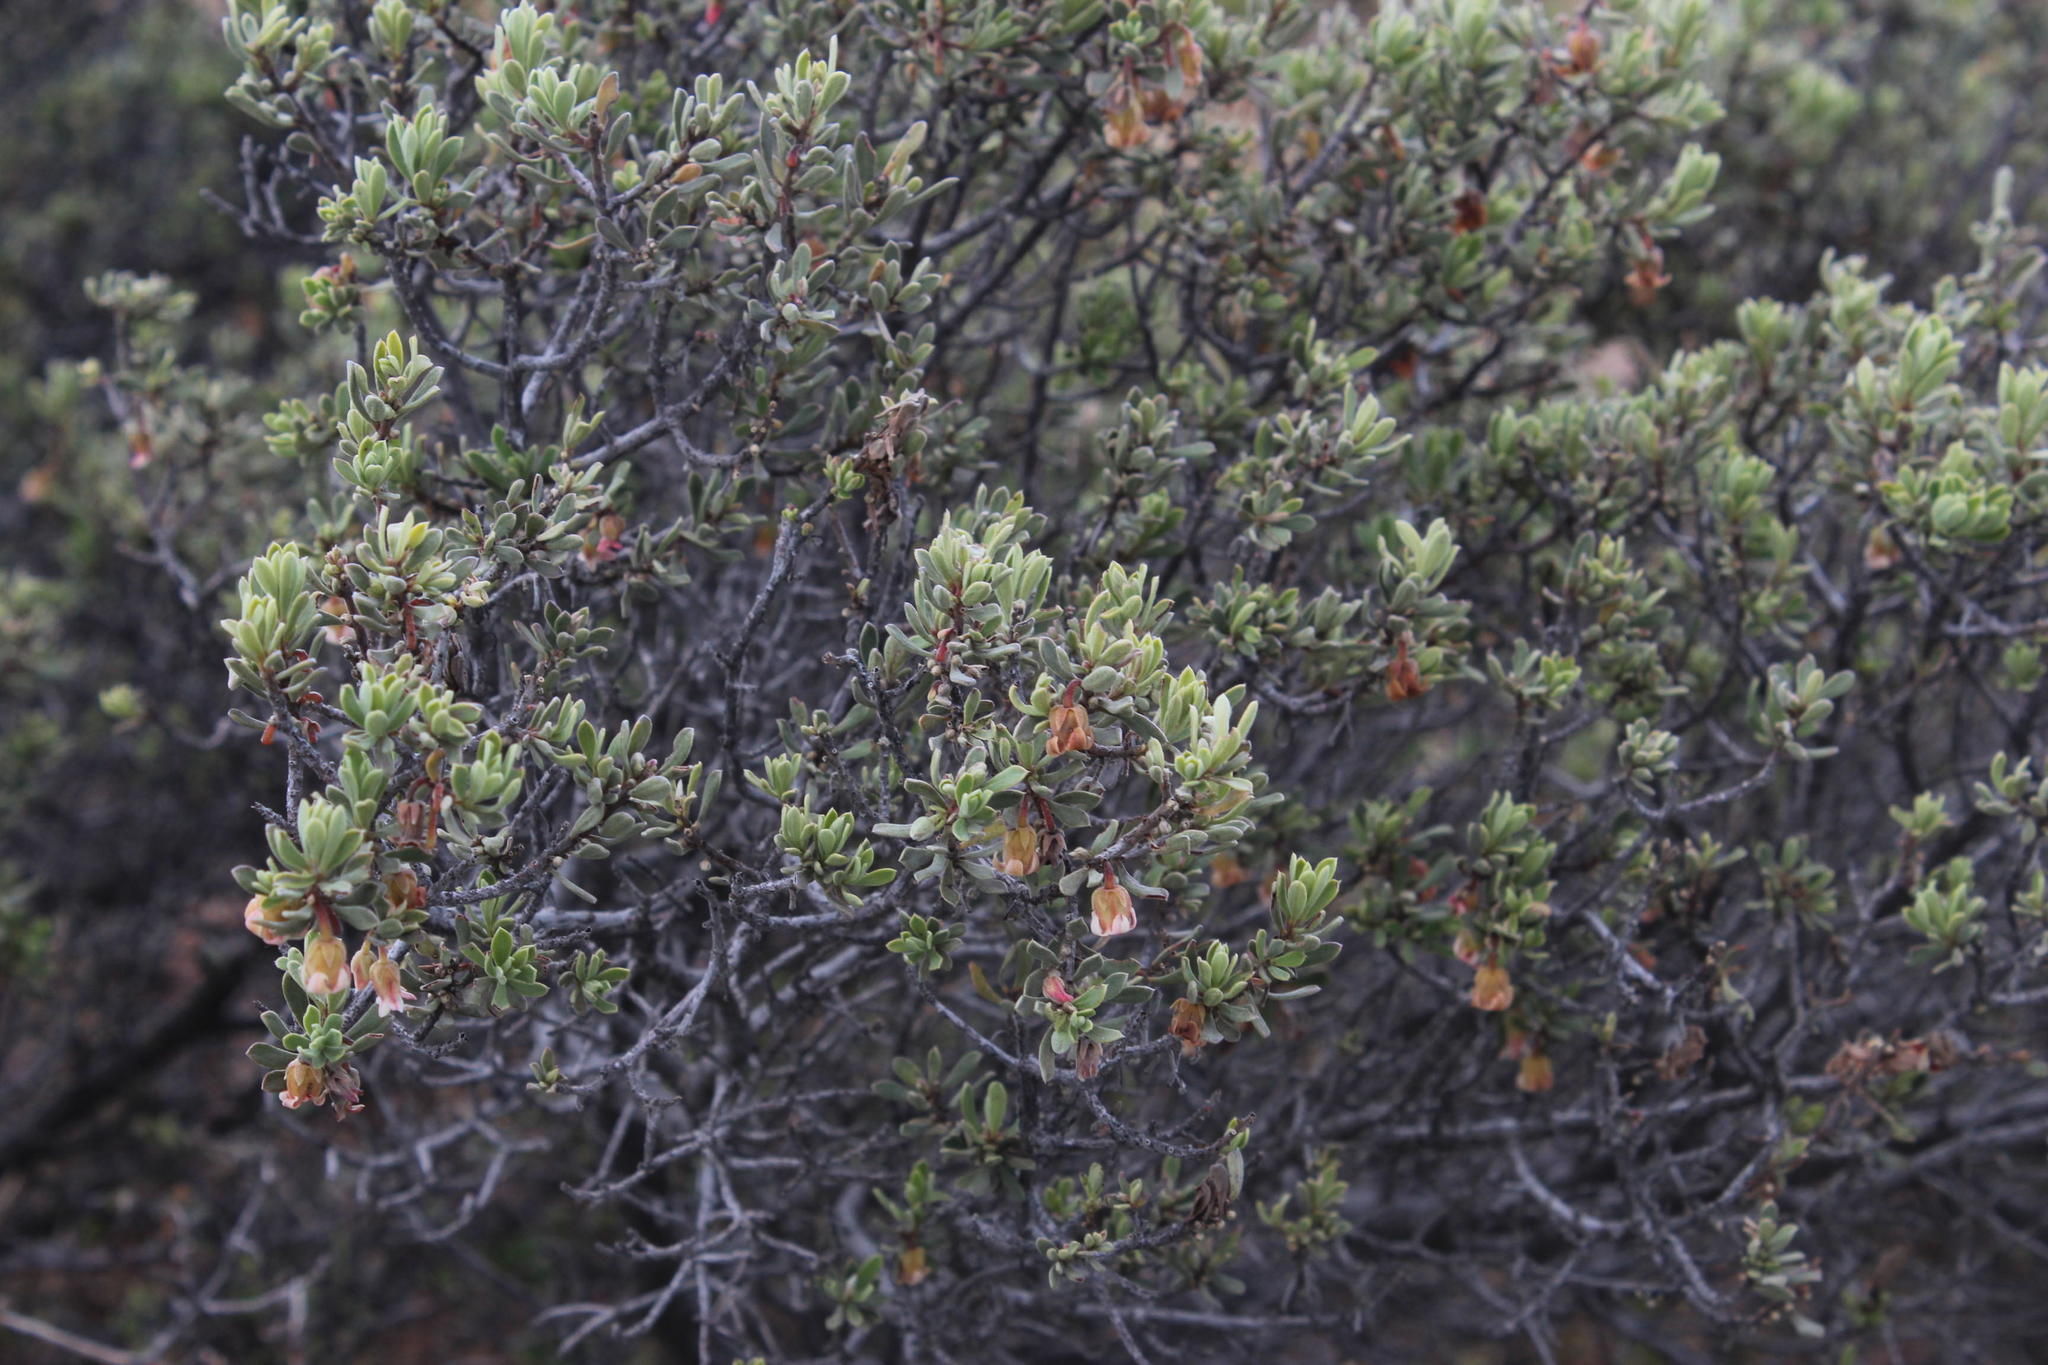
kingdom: Plantae
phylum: Tracheophyta
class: Magnoliopsida
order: Ericales
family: Ebenaceae
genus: Diospyros
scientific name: Diospyros pubescens
